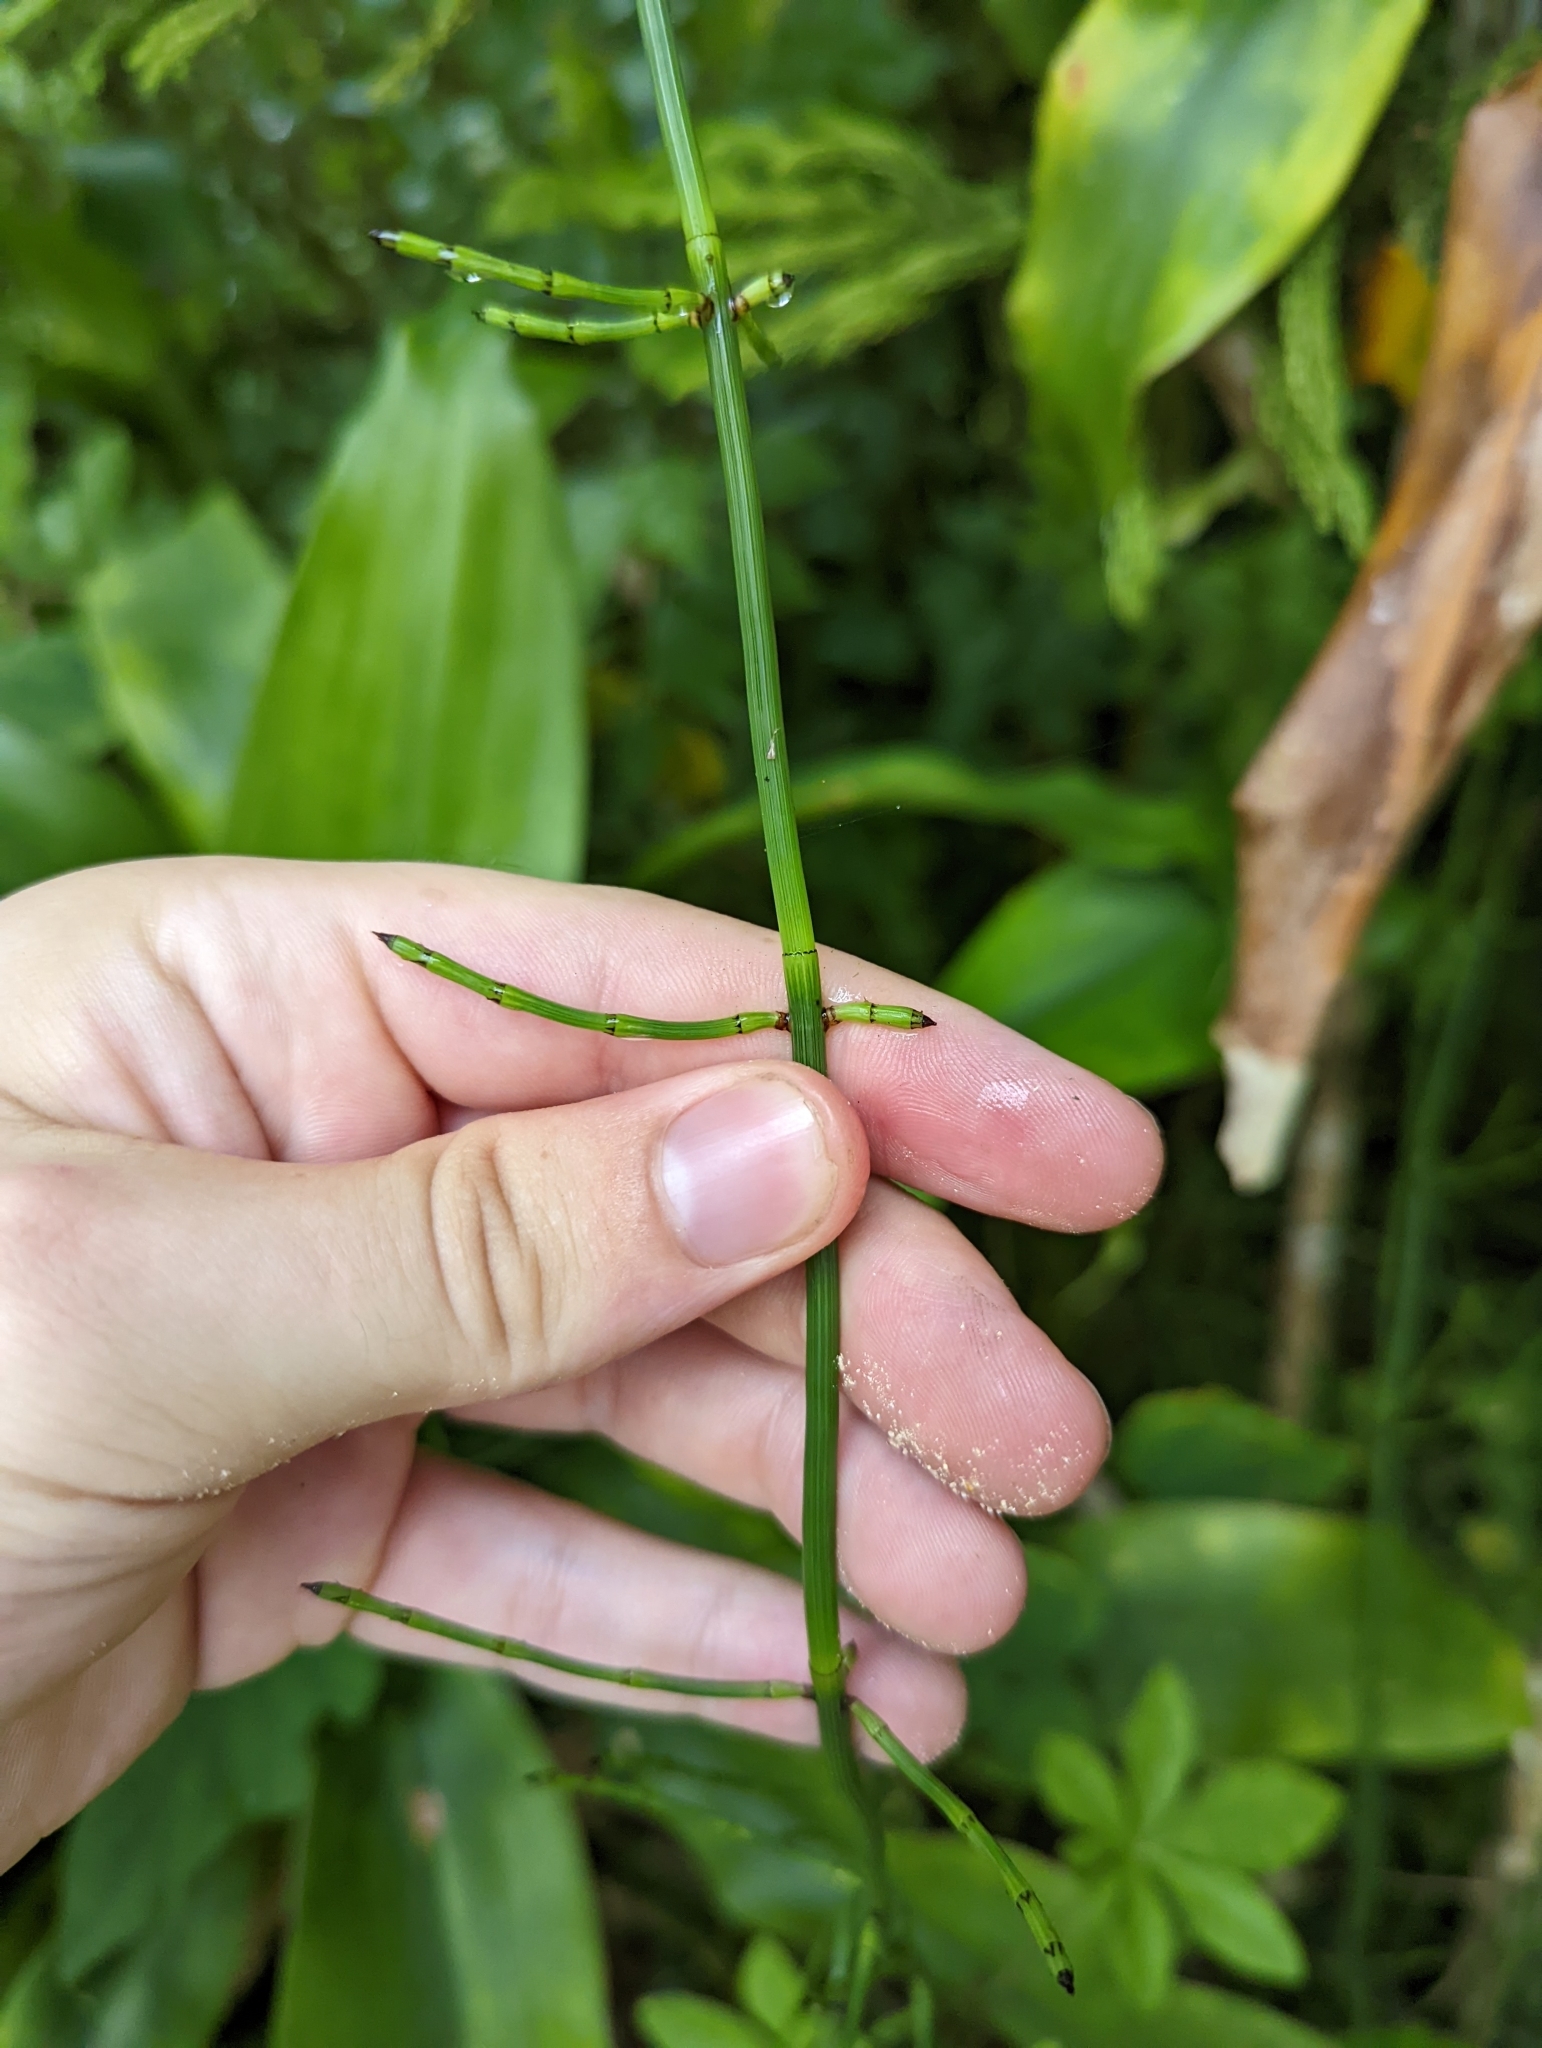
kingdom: Plantae
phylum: Tracheophyta
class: Polypodiopsida
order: Equisetales
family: Equisetaceae
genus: Equisetum
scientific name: Equisetum ramosissimum
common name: Branched horsetail
